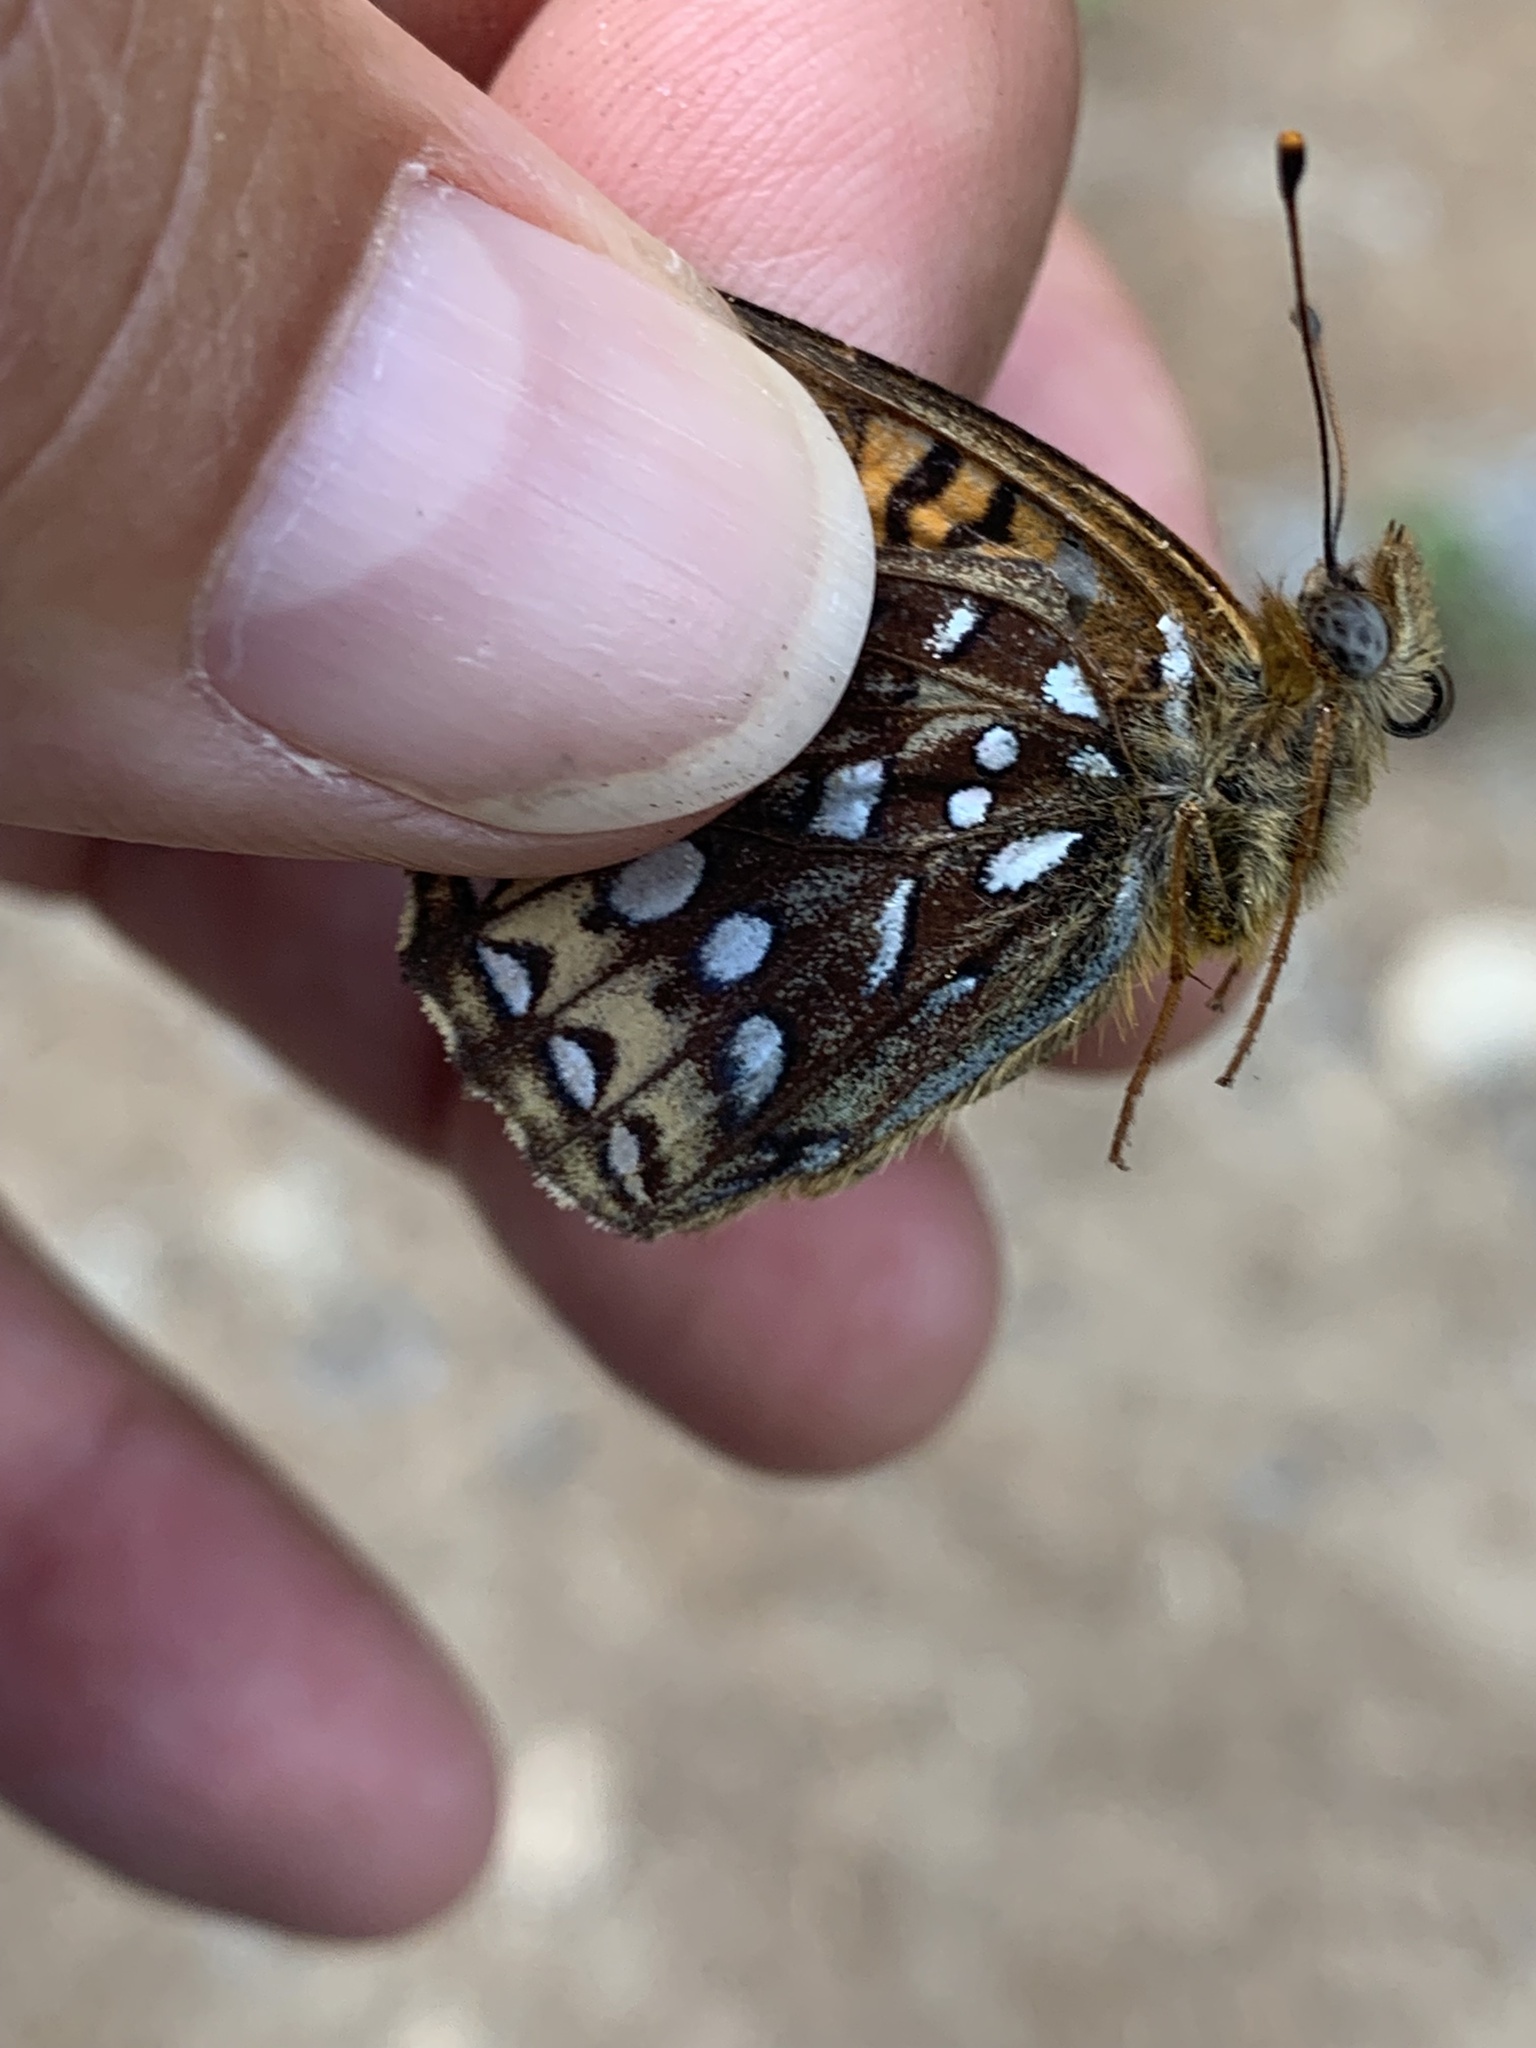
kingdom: Animalia
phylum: Arthropoda
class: Insecta
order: Lepidoptera
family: Nymphalidae
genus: Speyeria
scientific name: Speyeria atlantis
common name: Atlantis fritillary
